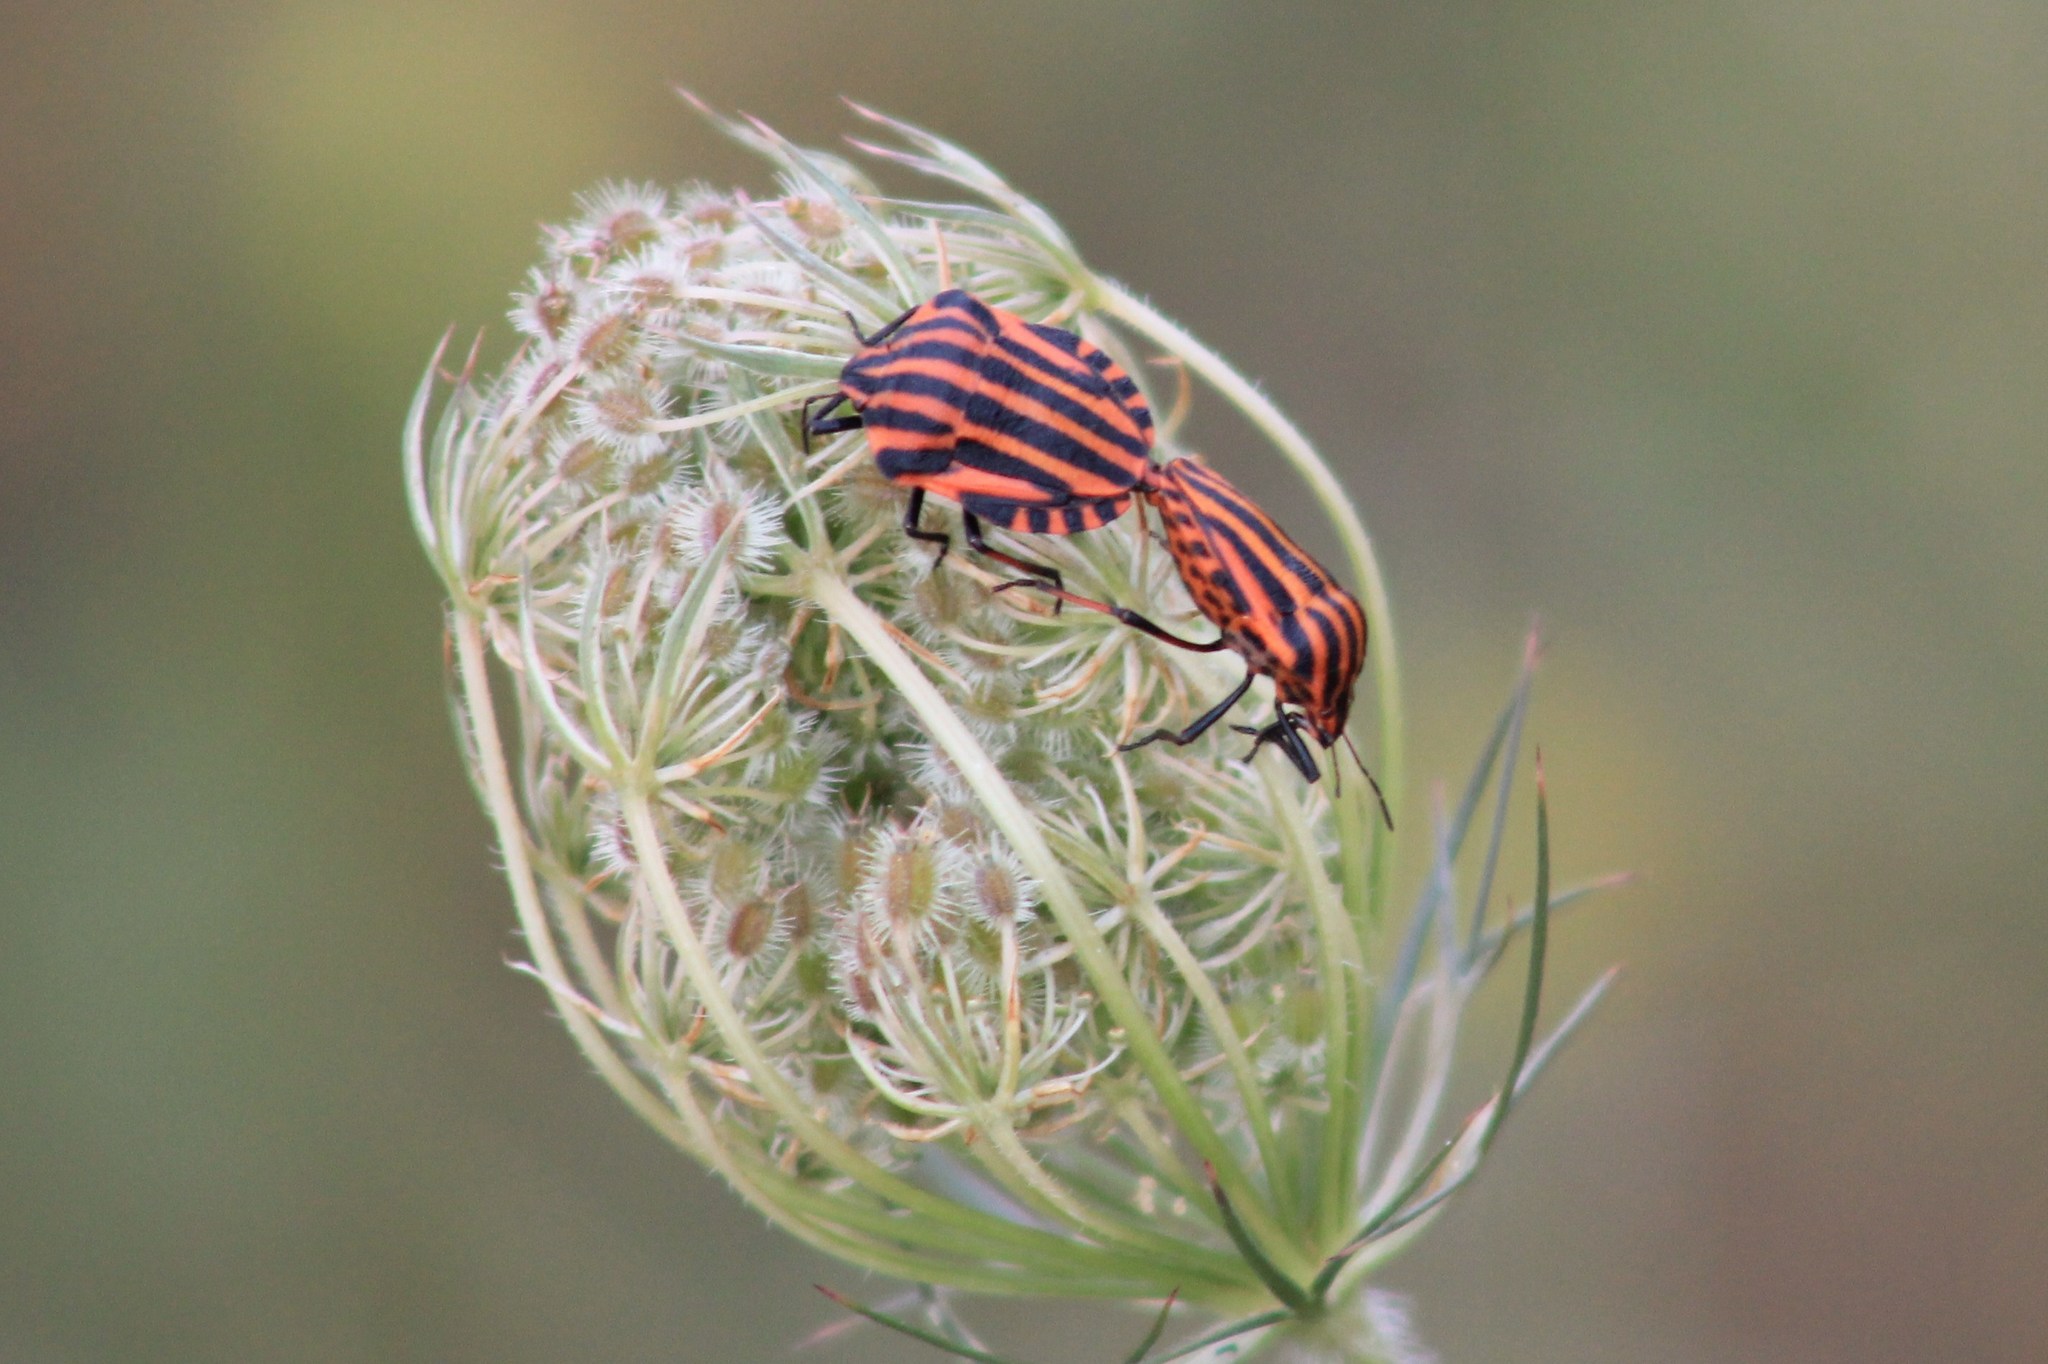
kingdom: Animalia
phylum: Arthropoda
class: Insecta
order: Hemiptera
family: Pentatomidae
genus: Graphosoma
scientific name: Graphosoma italicum
